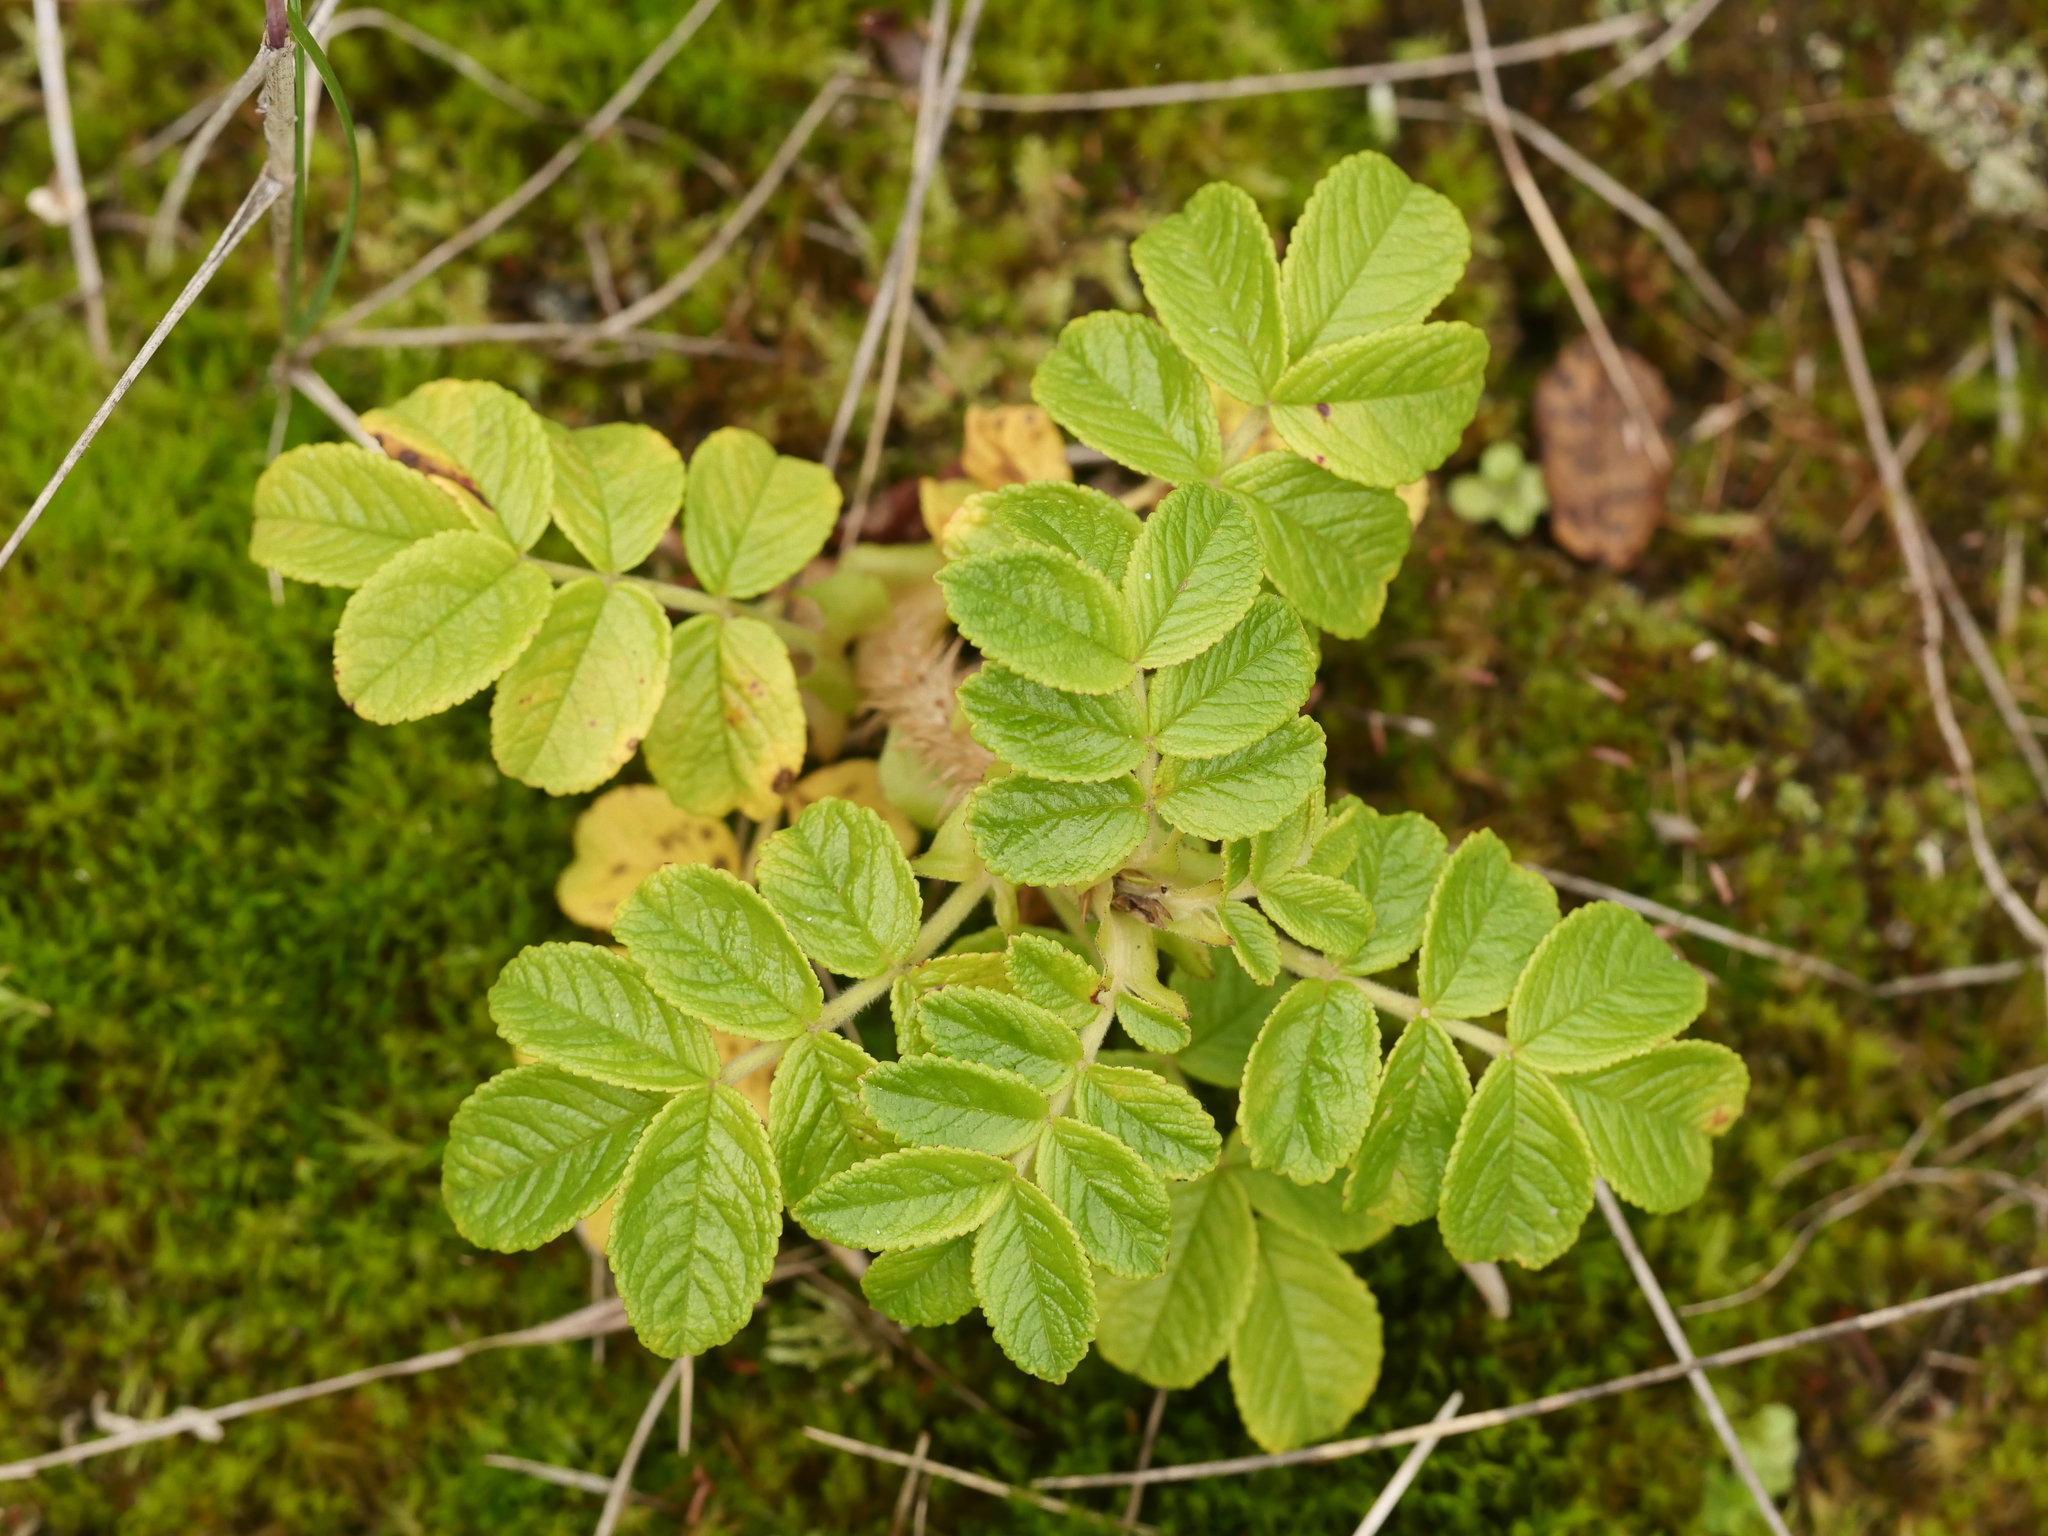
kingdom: Plantae
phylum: Tracheophyta
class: Magnoliopsida
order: Rosales
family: Rosaceae
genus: Rosa
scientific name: Rosa rugosa
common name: Japanese rose
